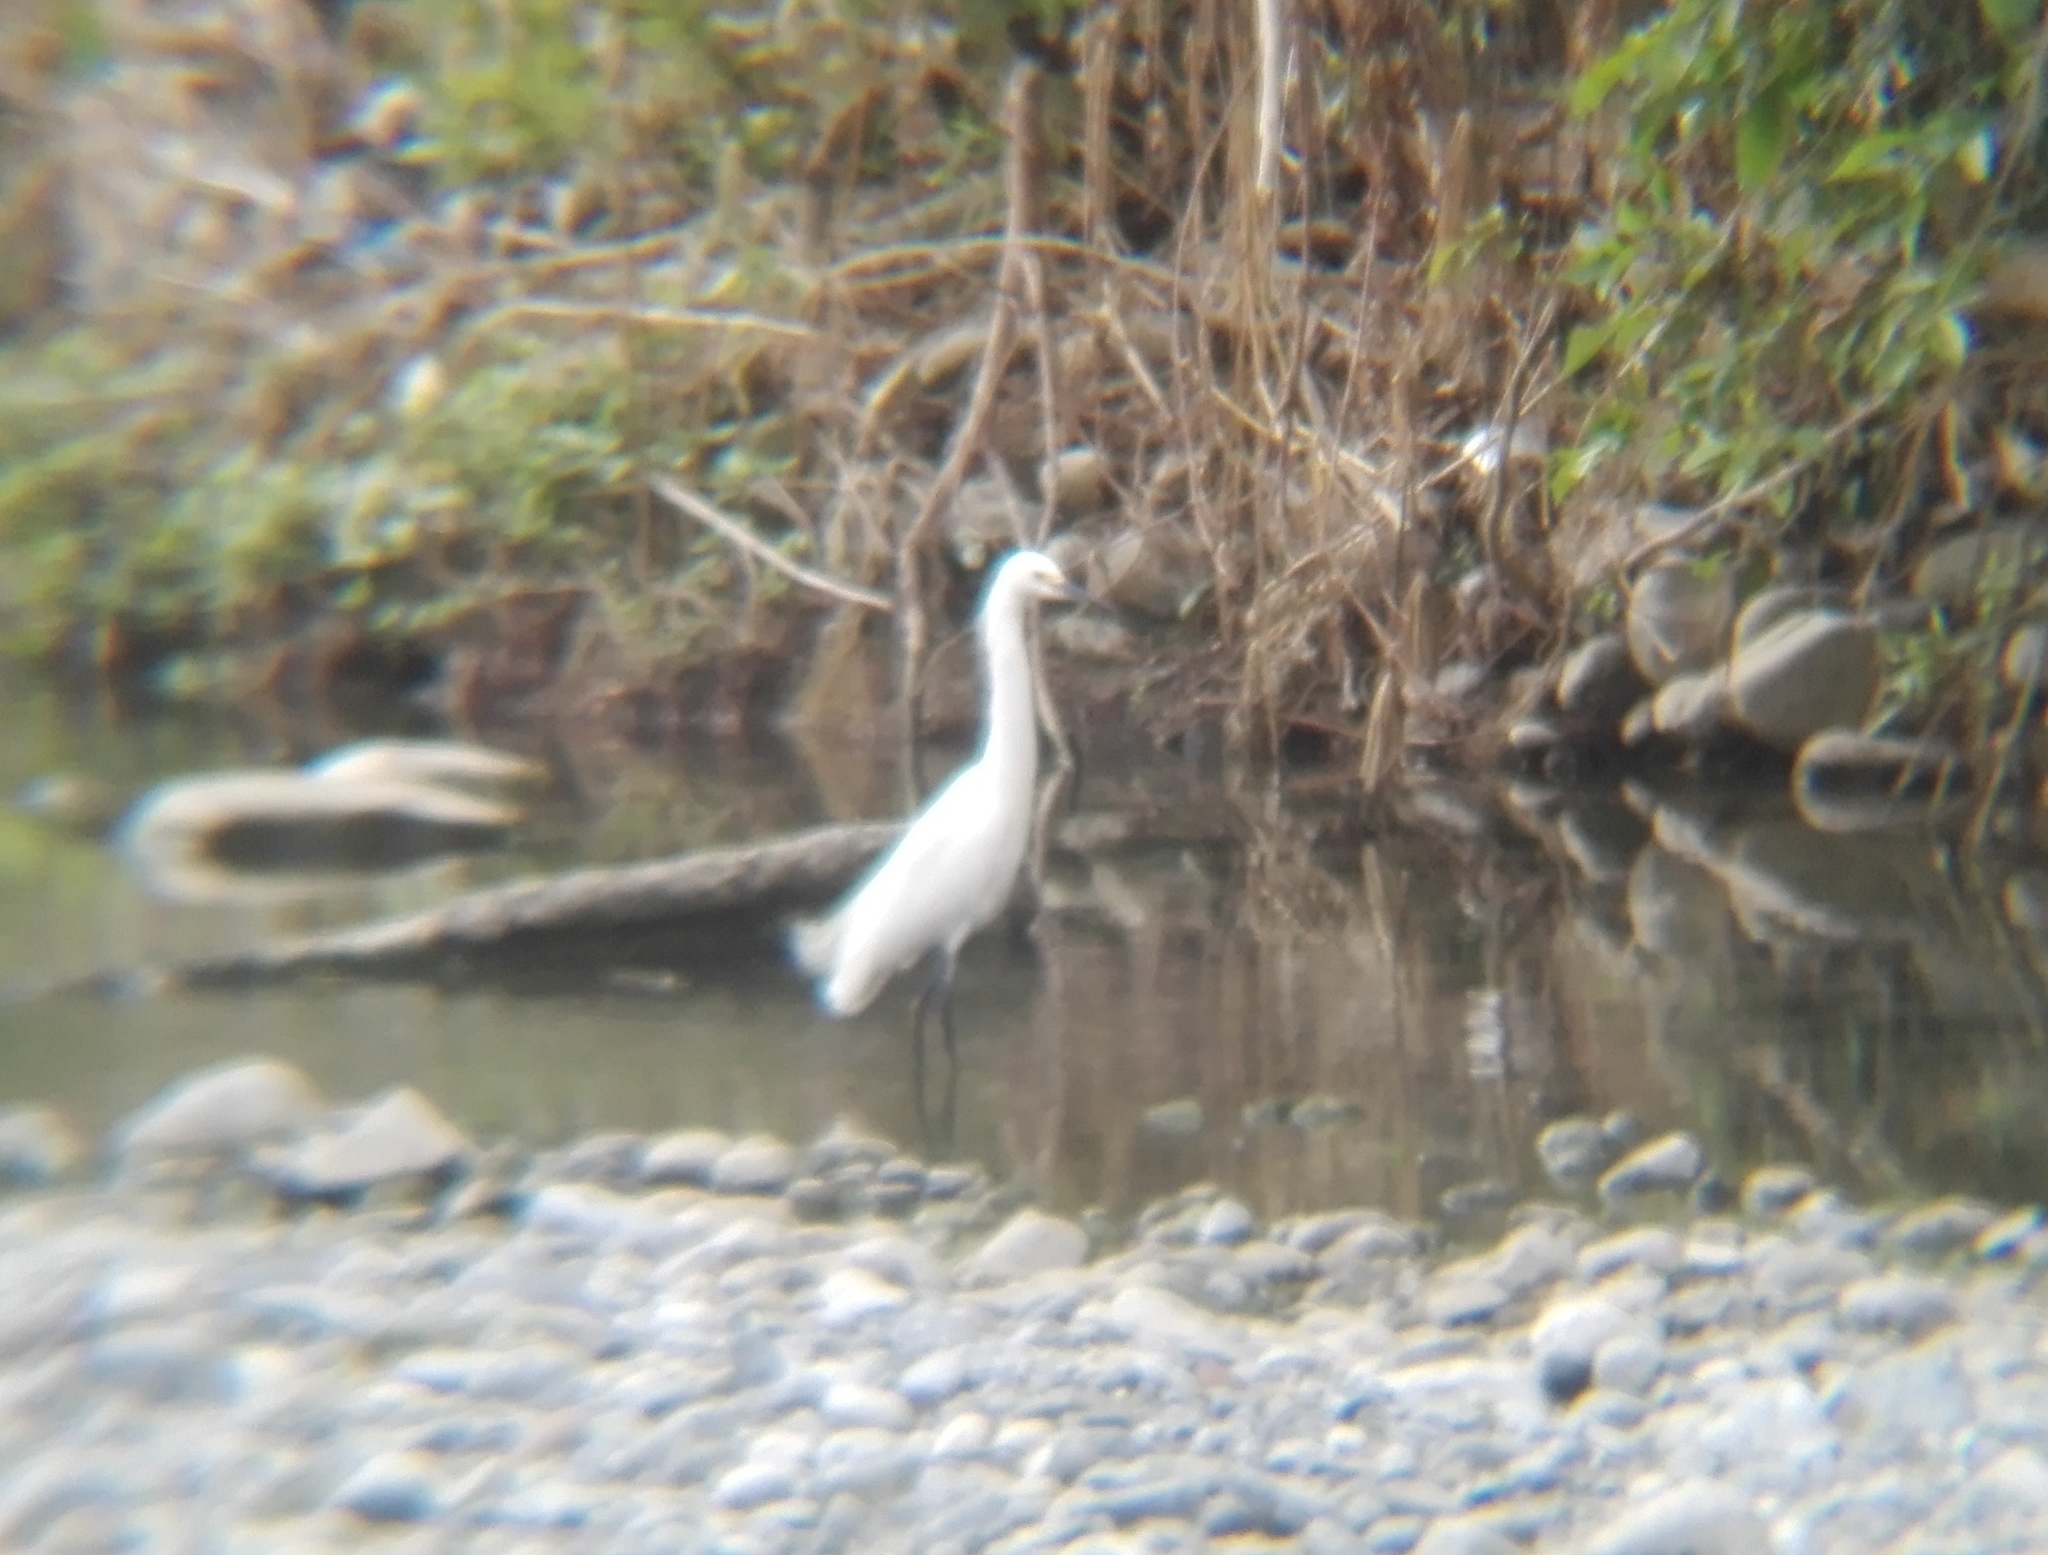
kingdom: Animalia
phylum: Chordata
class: Aves
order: Pelecaniformes
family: Ardeidae
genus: Egretta
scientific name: Egretta thula
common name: Snowy egret
